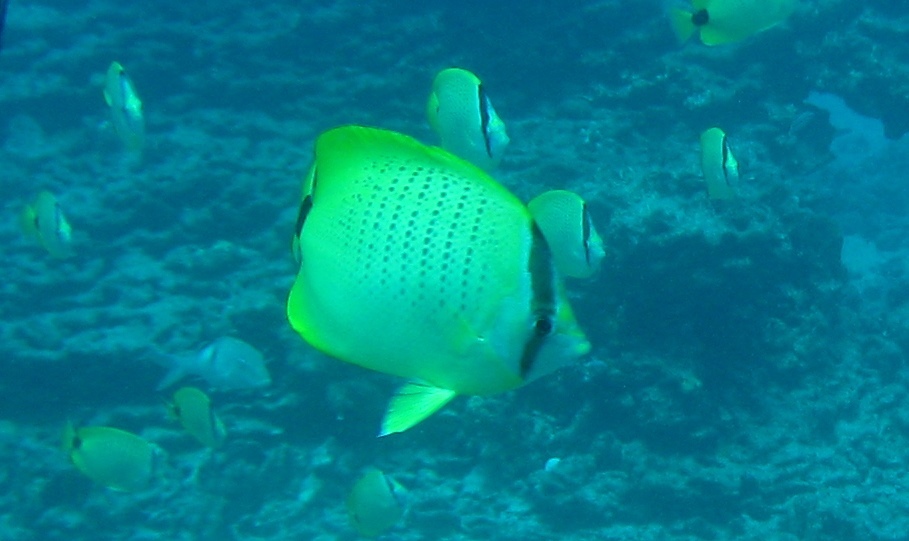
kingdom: Animalia
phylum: Chordata
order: Perciformes
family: Chaetodontidae
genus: Chaetodon
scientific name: Chaetodon miliaris
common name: Lemon butterflyfish
